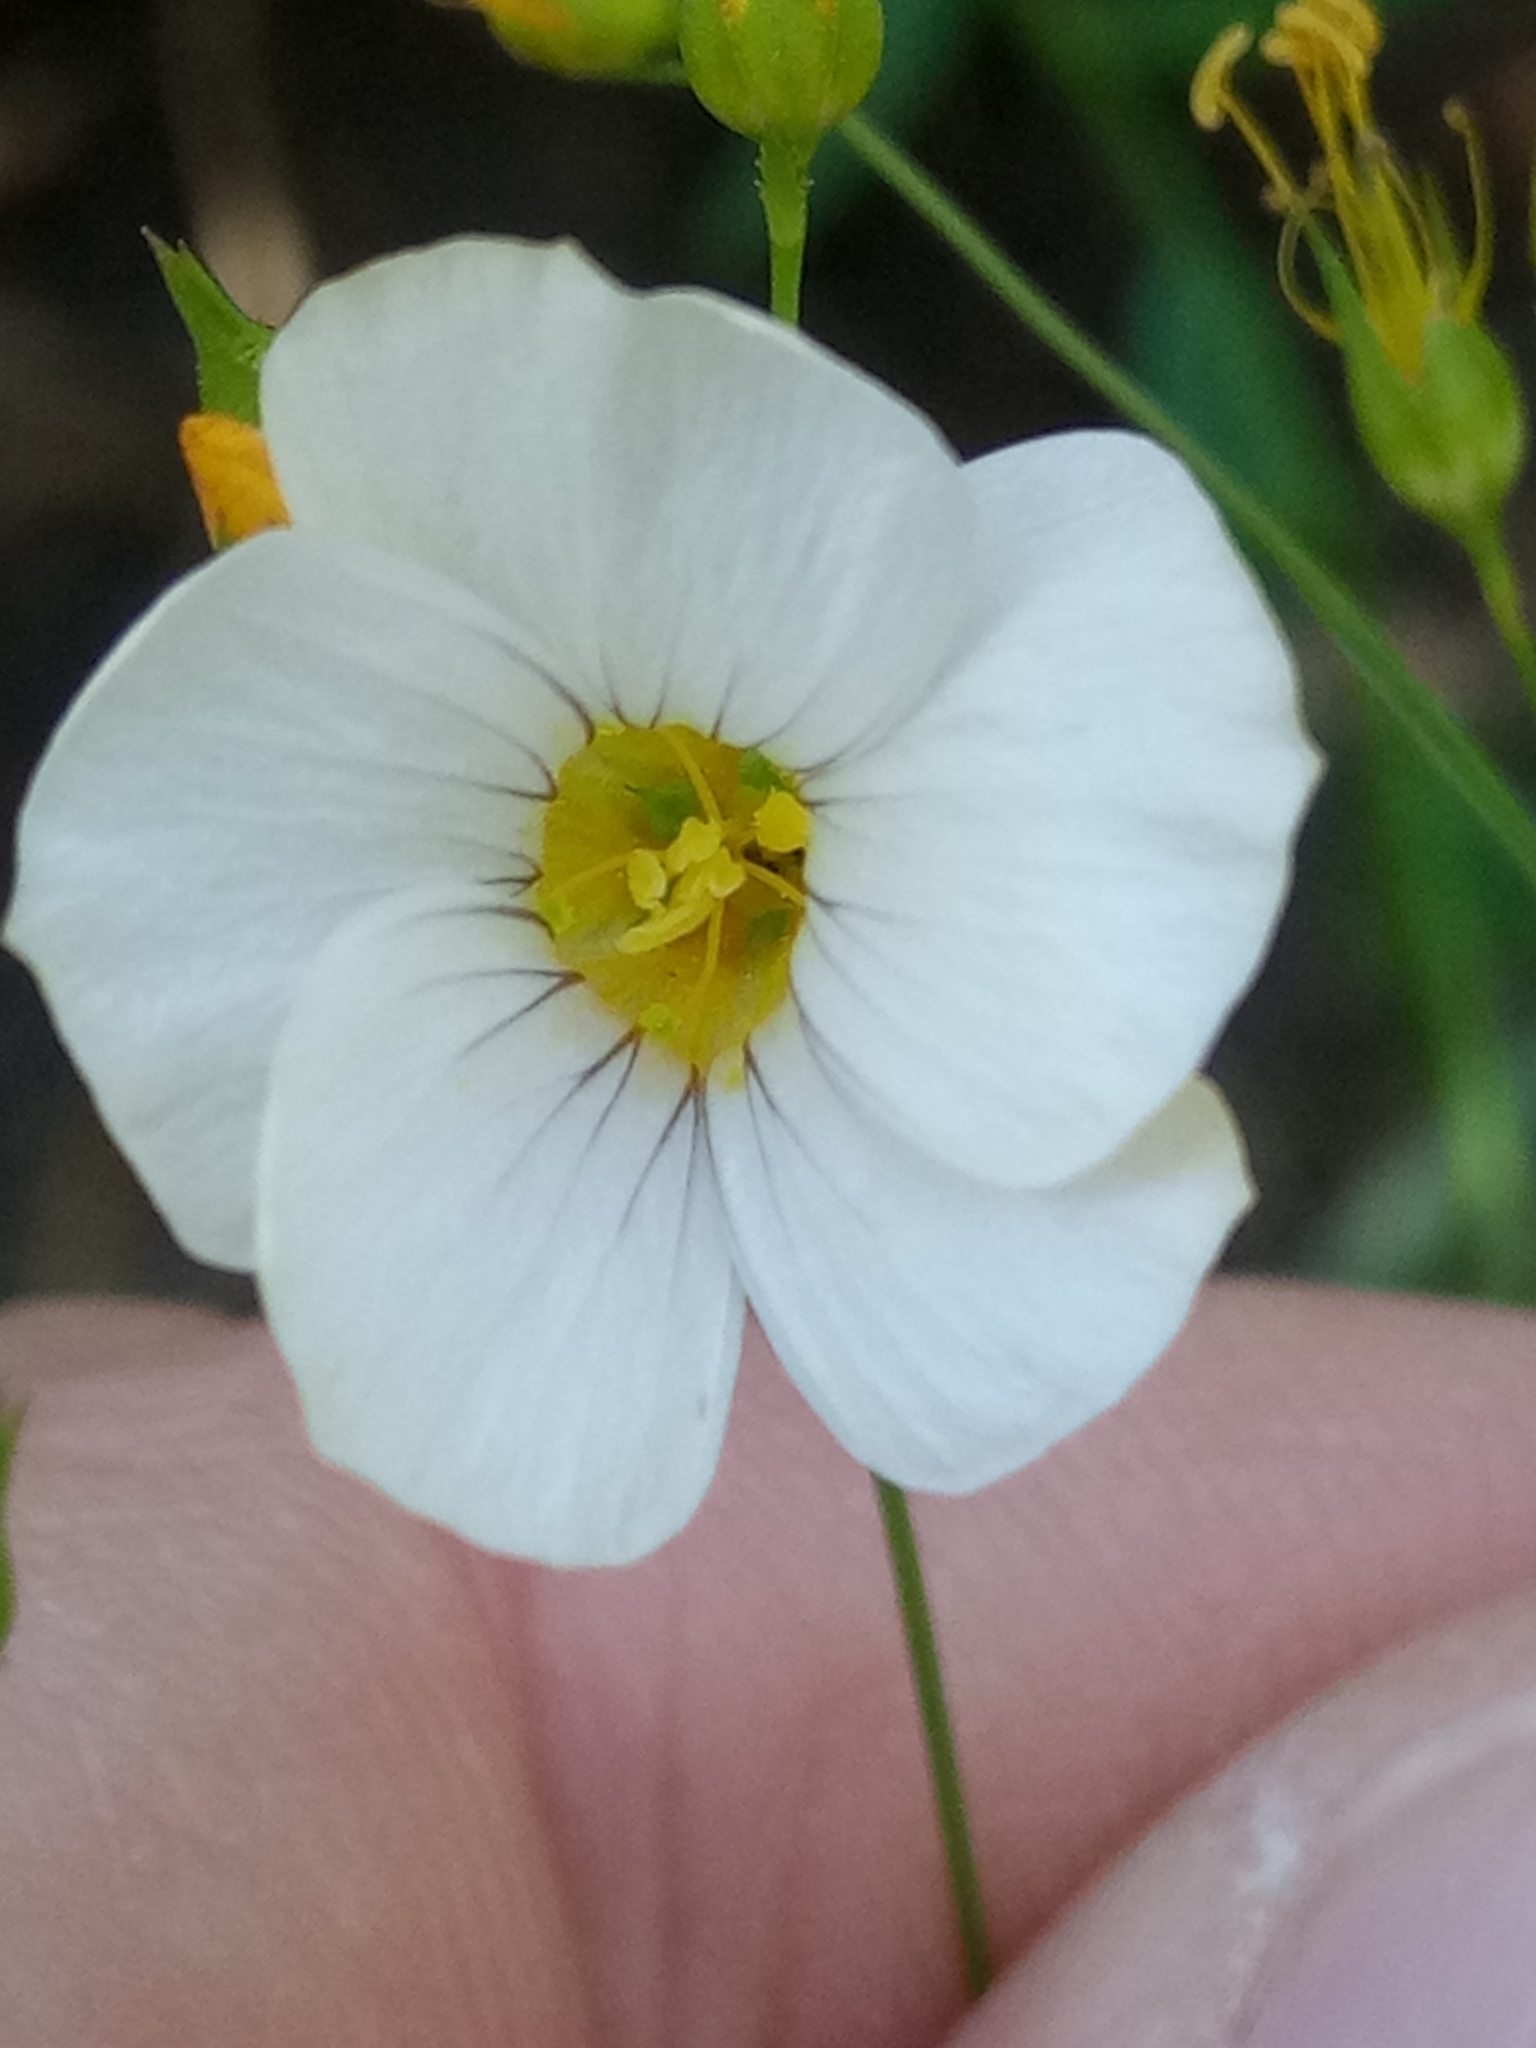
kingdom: Plantae
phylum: Tracheophyta
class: Magnoliopsida
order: Malpighiales
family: Linaceae
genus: Linum
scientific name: Linum corymbiferum
